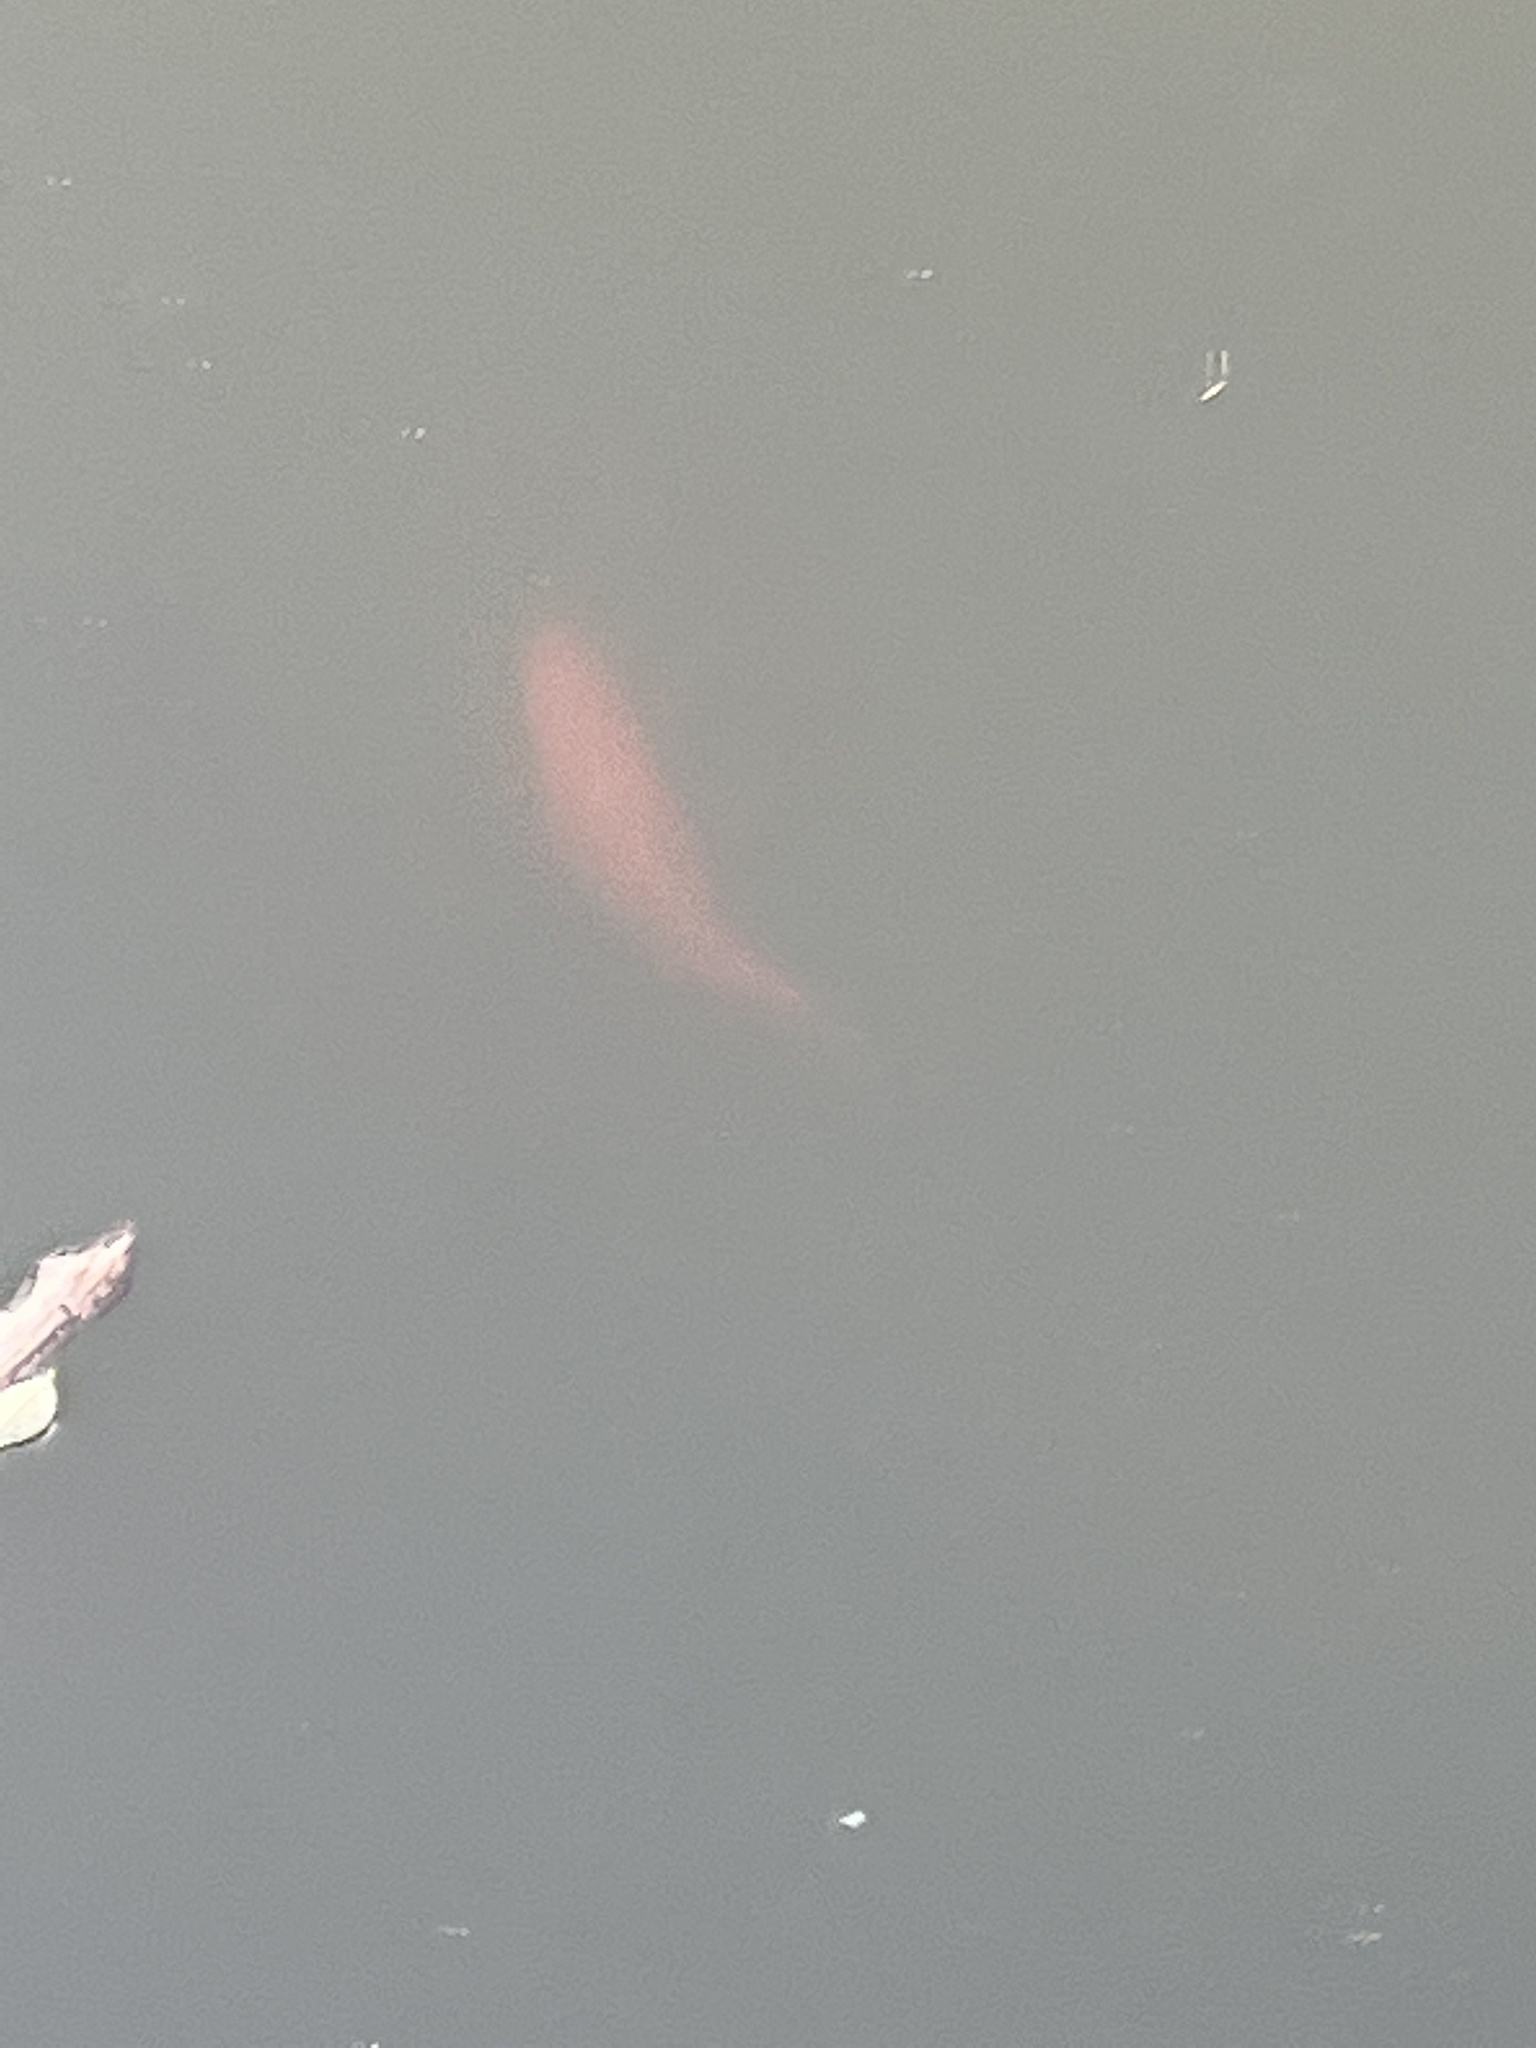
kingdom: Animalia
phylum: Chordata
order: Cypriniformes
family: Cyprinidae
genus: Carassius
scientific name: Carassius auratus
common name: Goldfish
